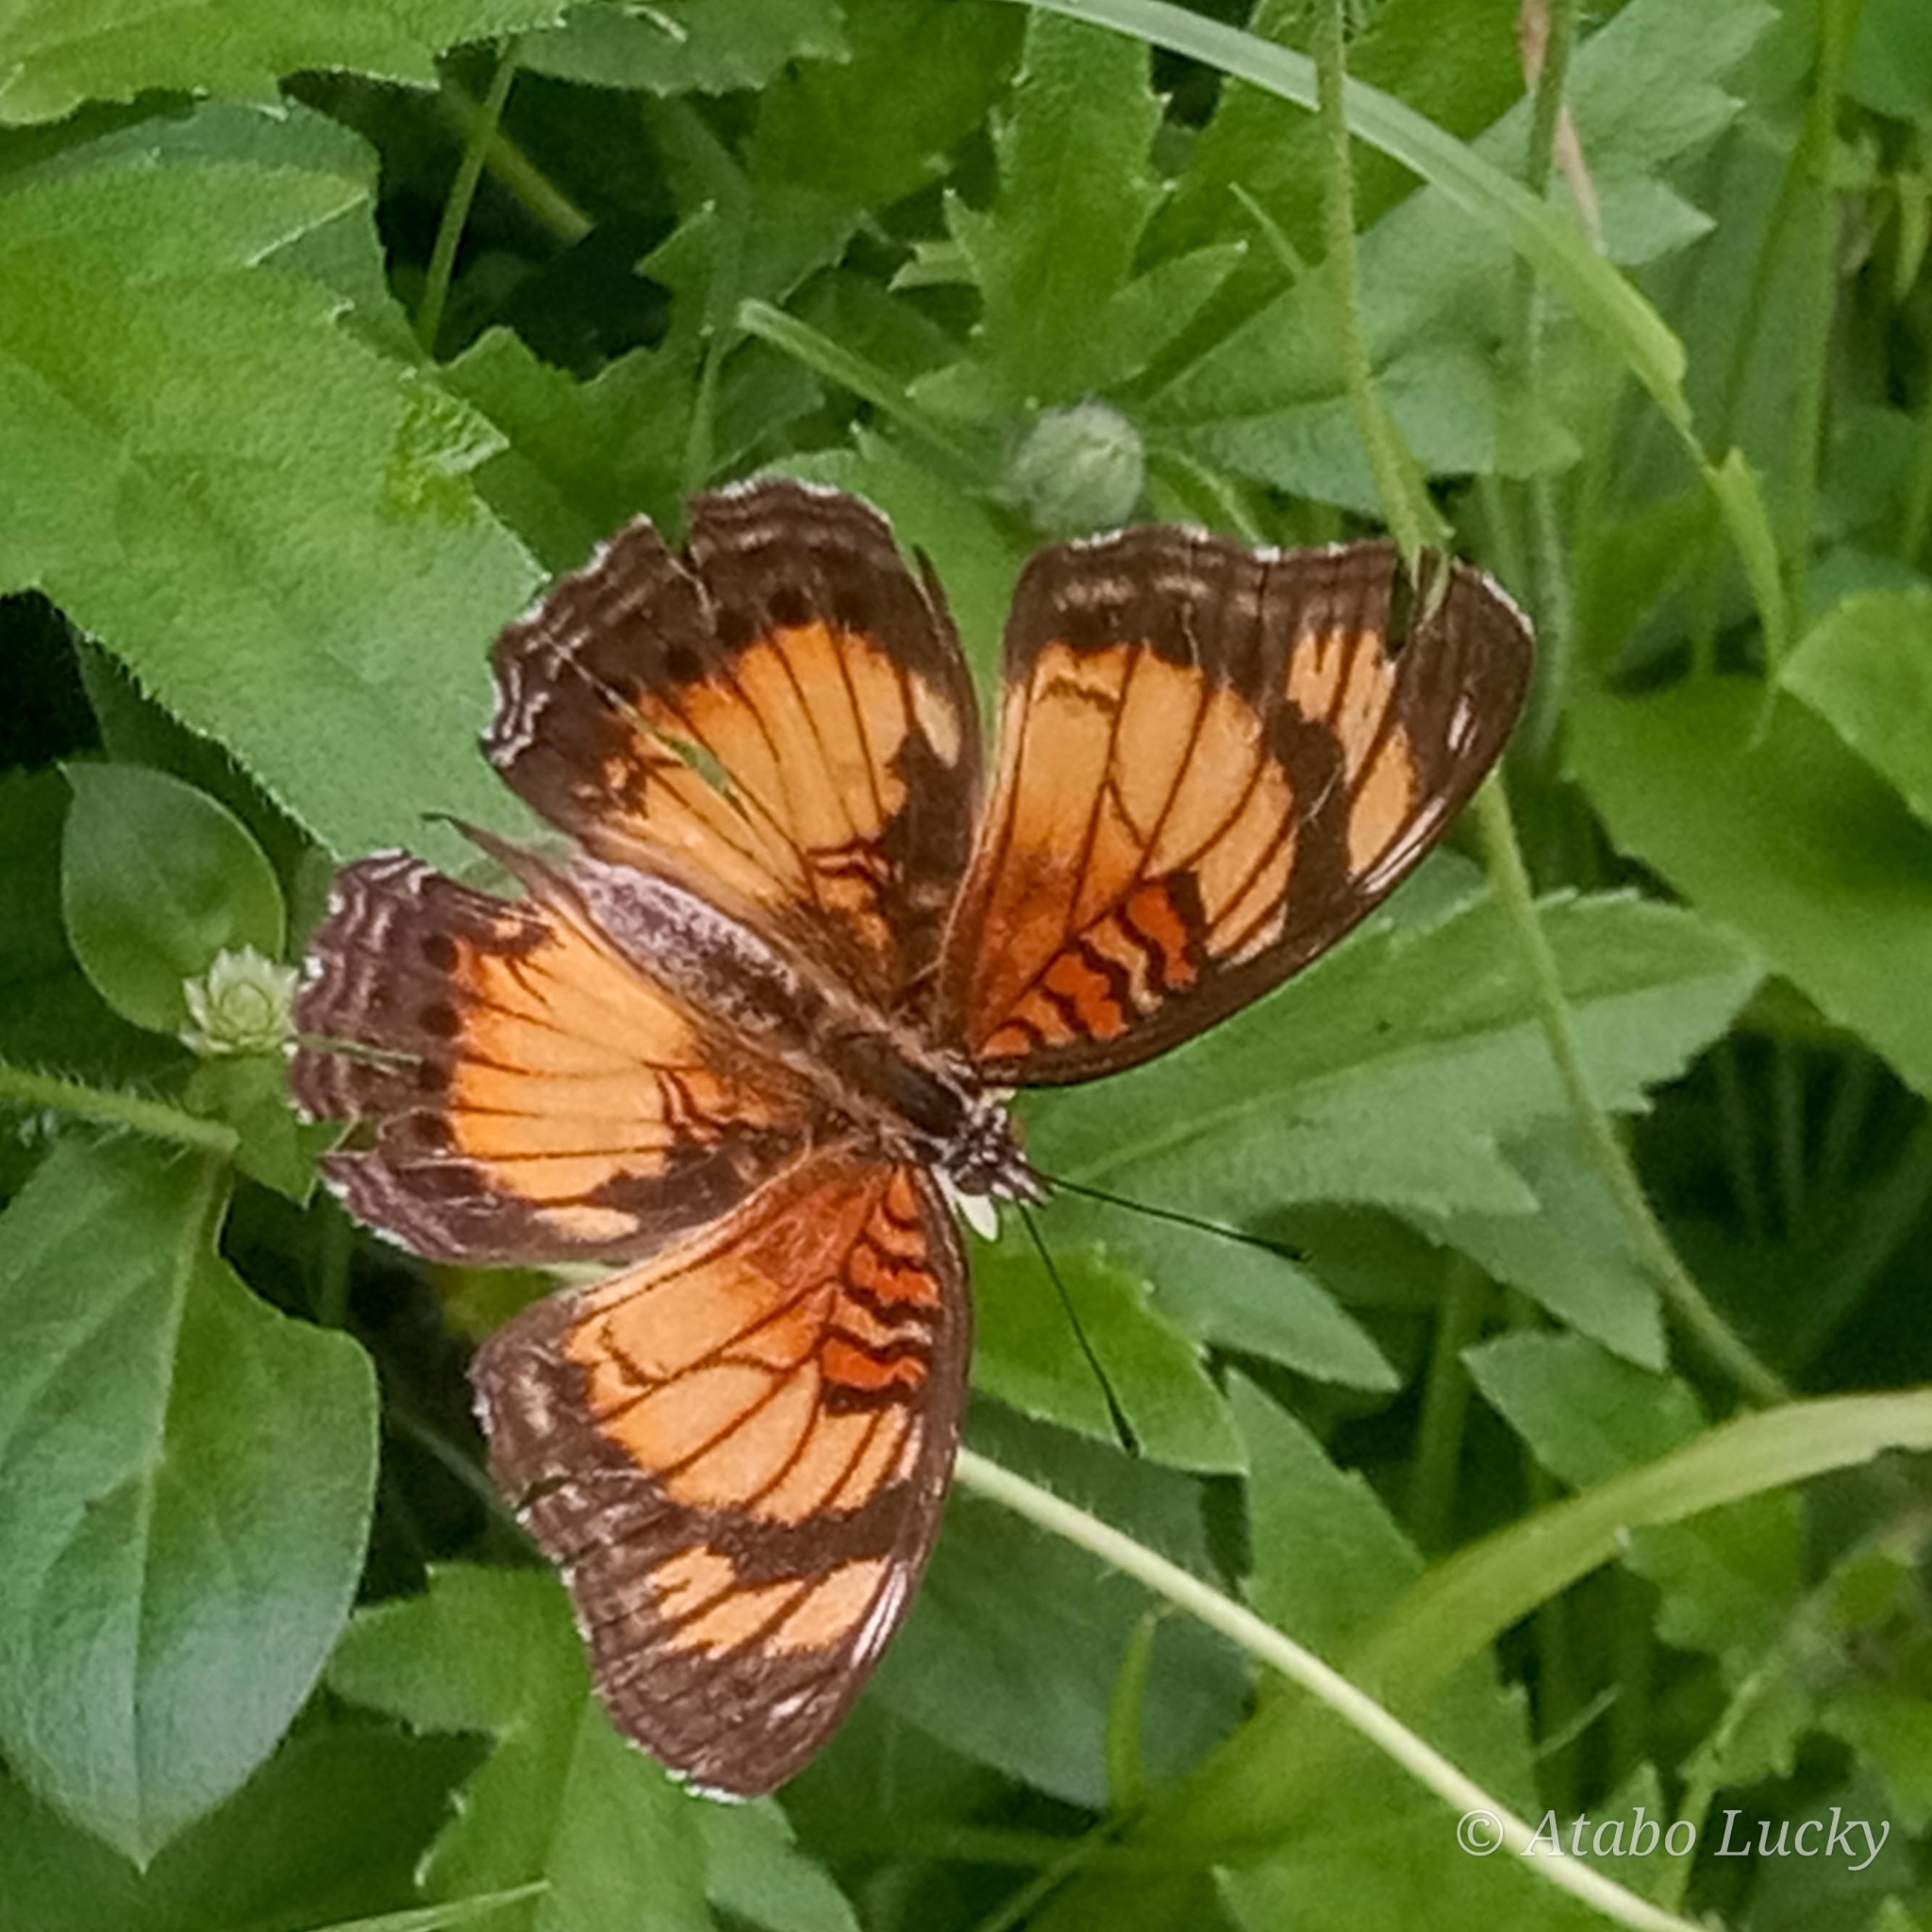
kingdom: Animalia
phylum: Arthropoda
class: Insecta
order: Lepidoptera
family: Nymphalidae
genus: Junonia
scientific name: Junonia sophia
